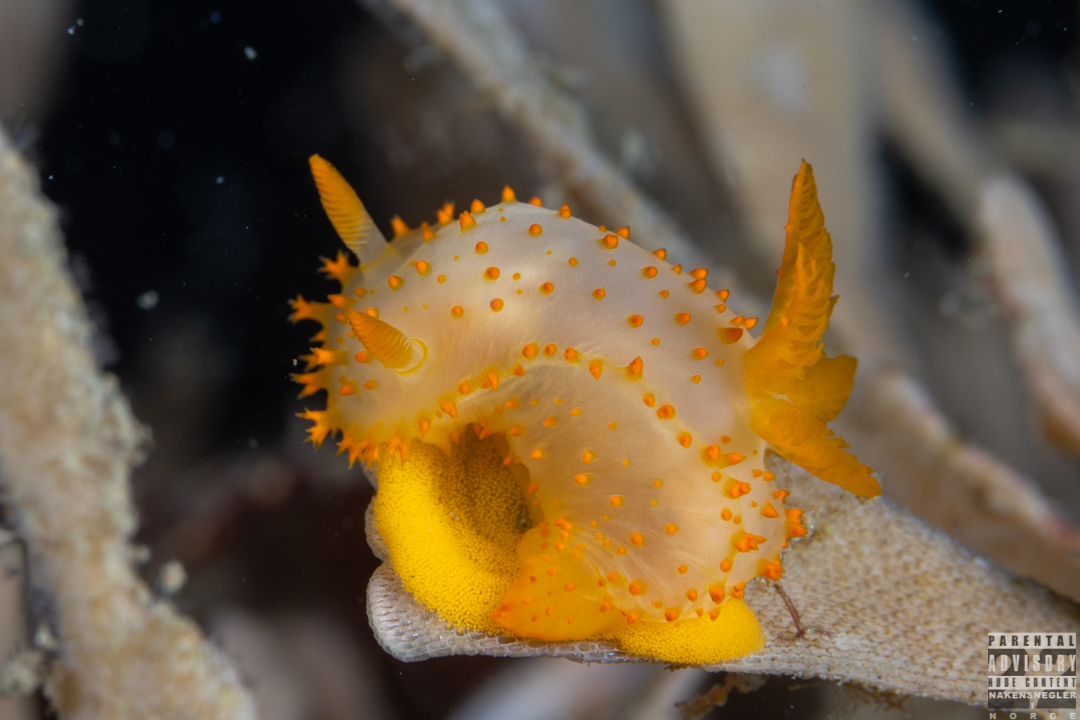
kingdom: Animalia
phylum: Mollusca
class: Gastropoda
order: Nudibranchia
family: Polyceridae
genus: Crimora
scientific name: Crimora papillata
